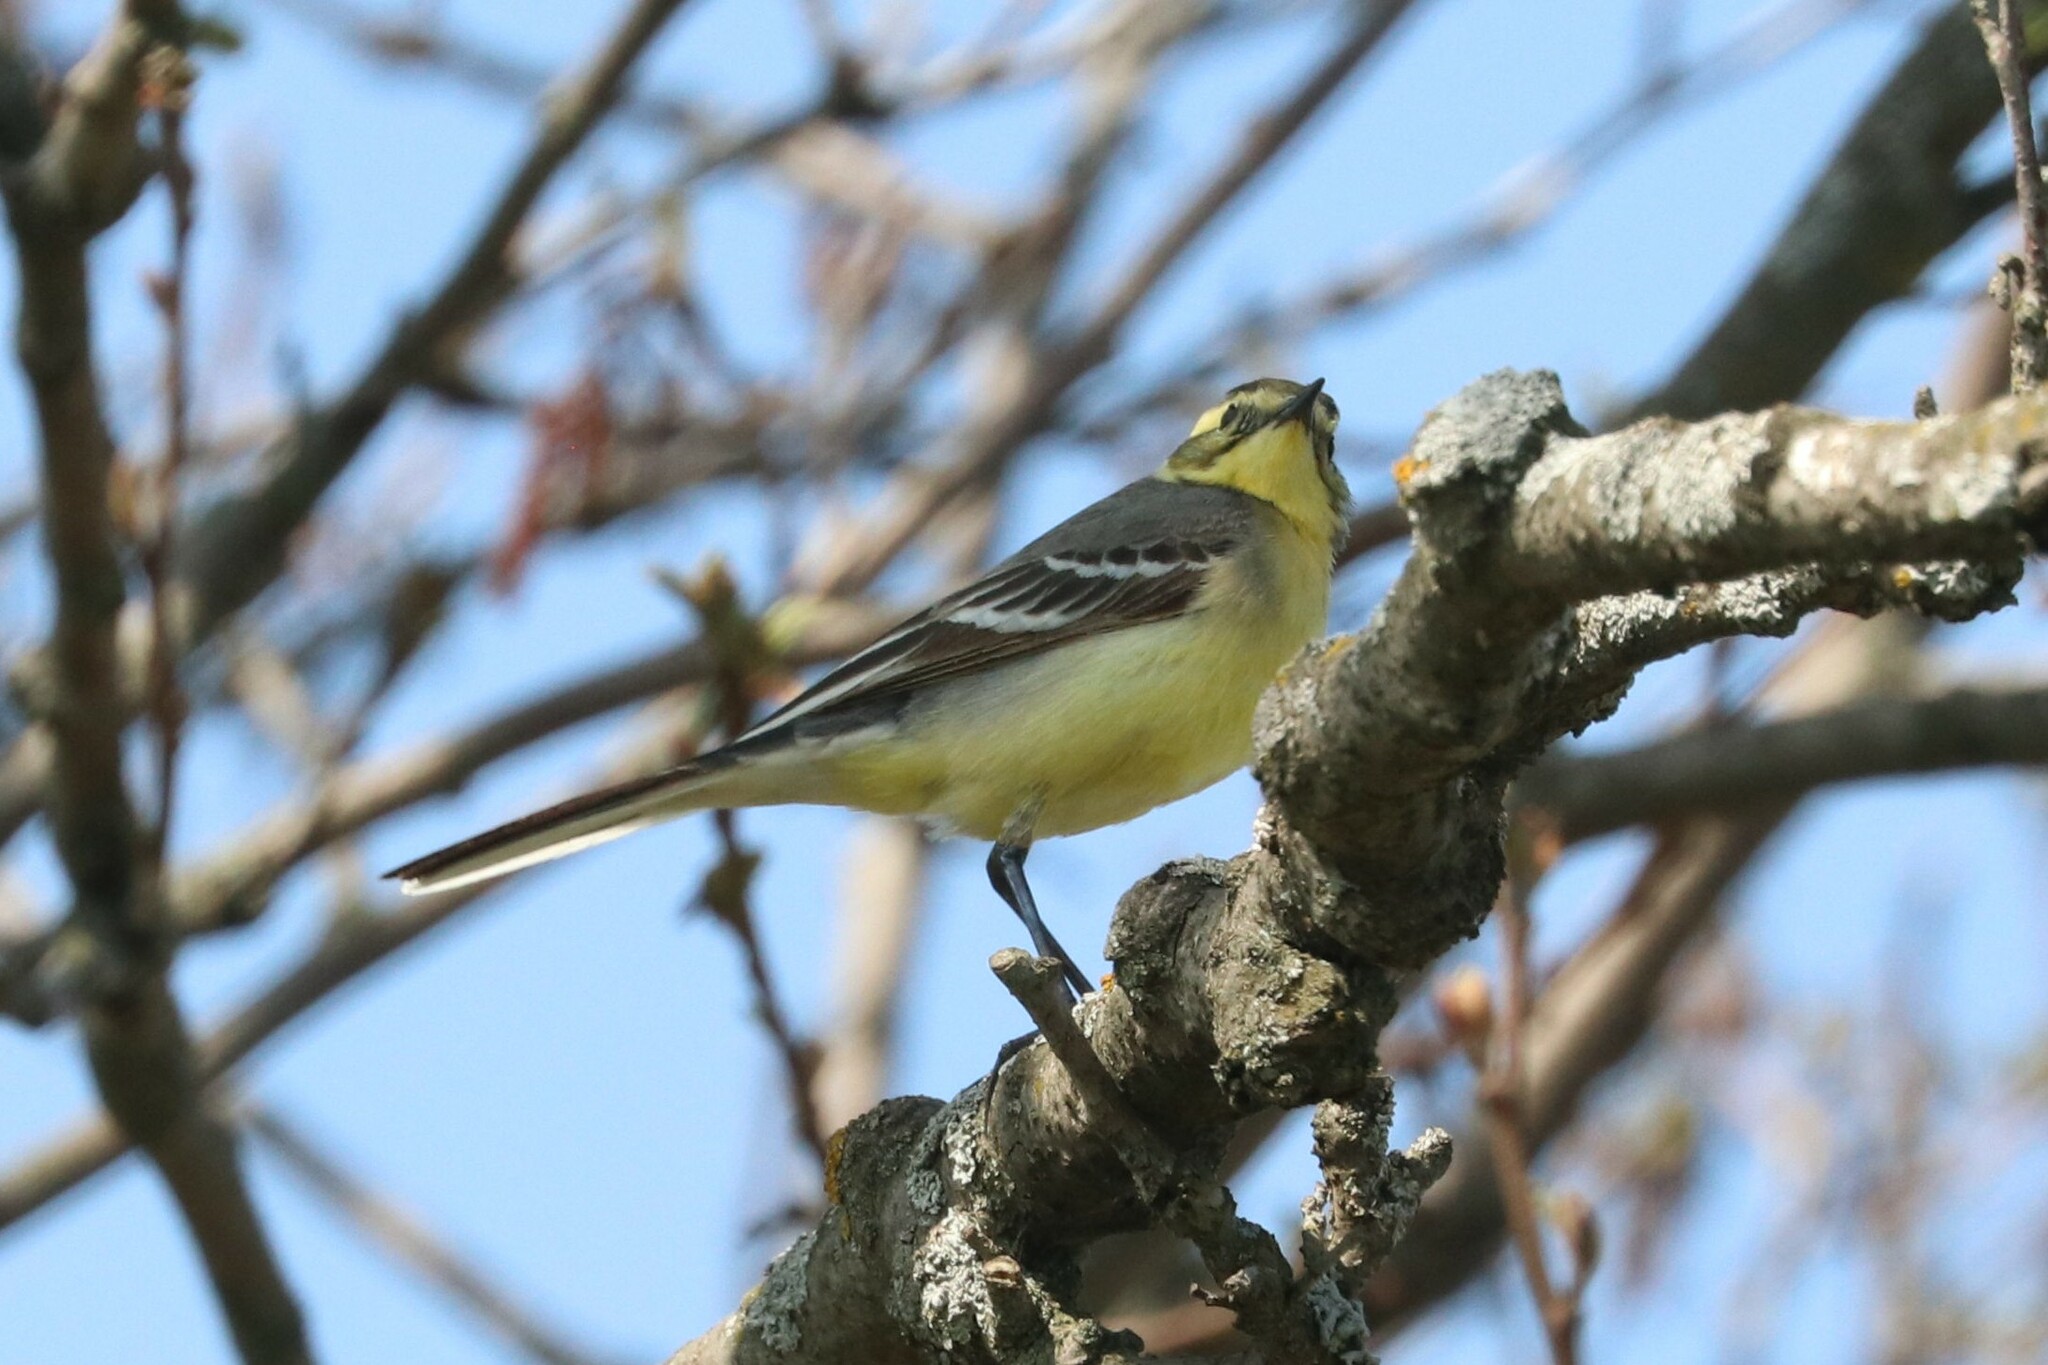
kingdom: Animalia
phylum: Chordata
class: Aves
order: Passeriformes
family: Motacillidae
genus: Motacilla
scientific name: Motacilla citreola
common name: Citrine wagtail
